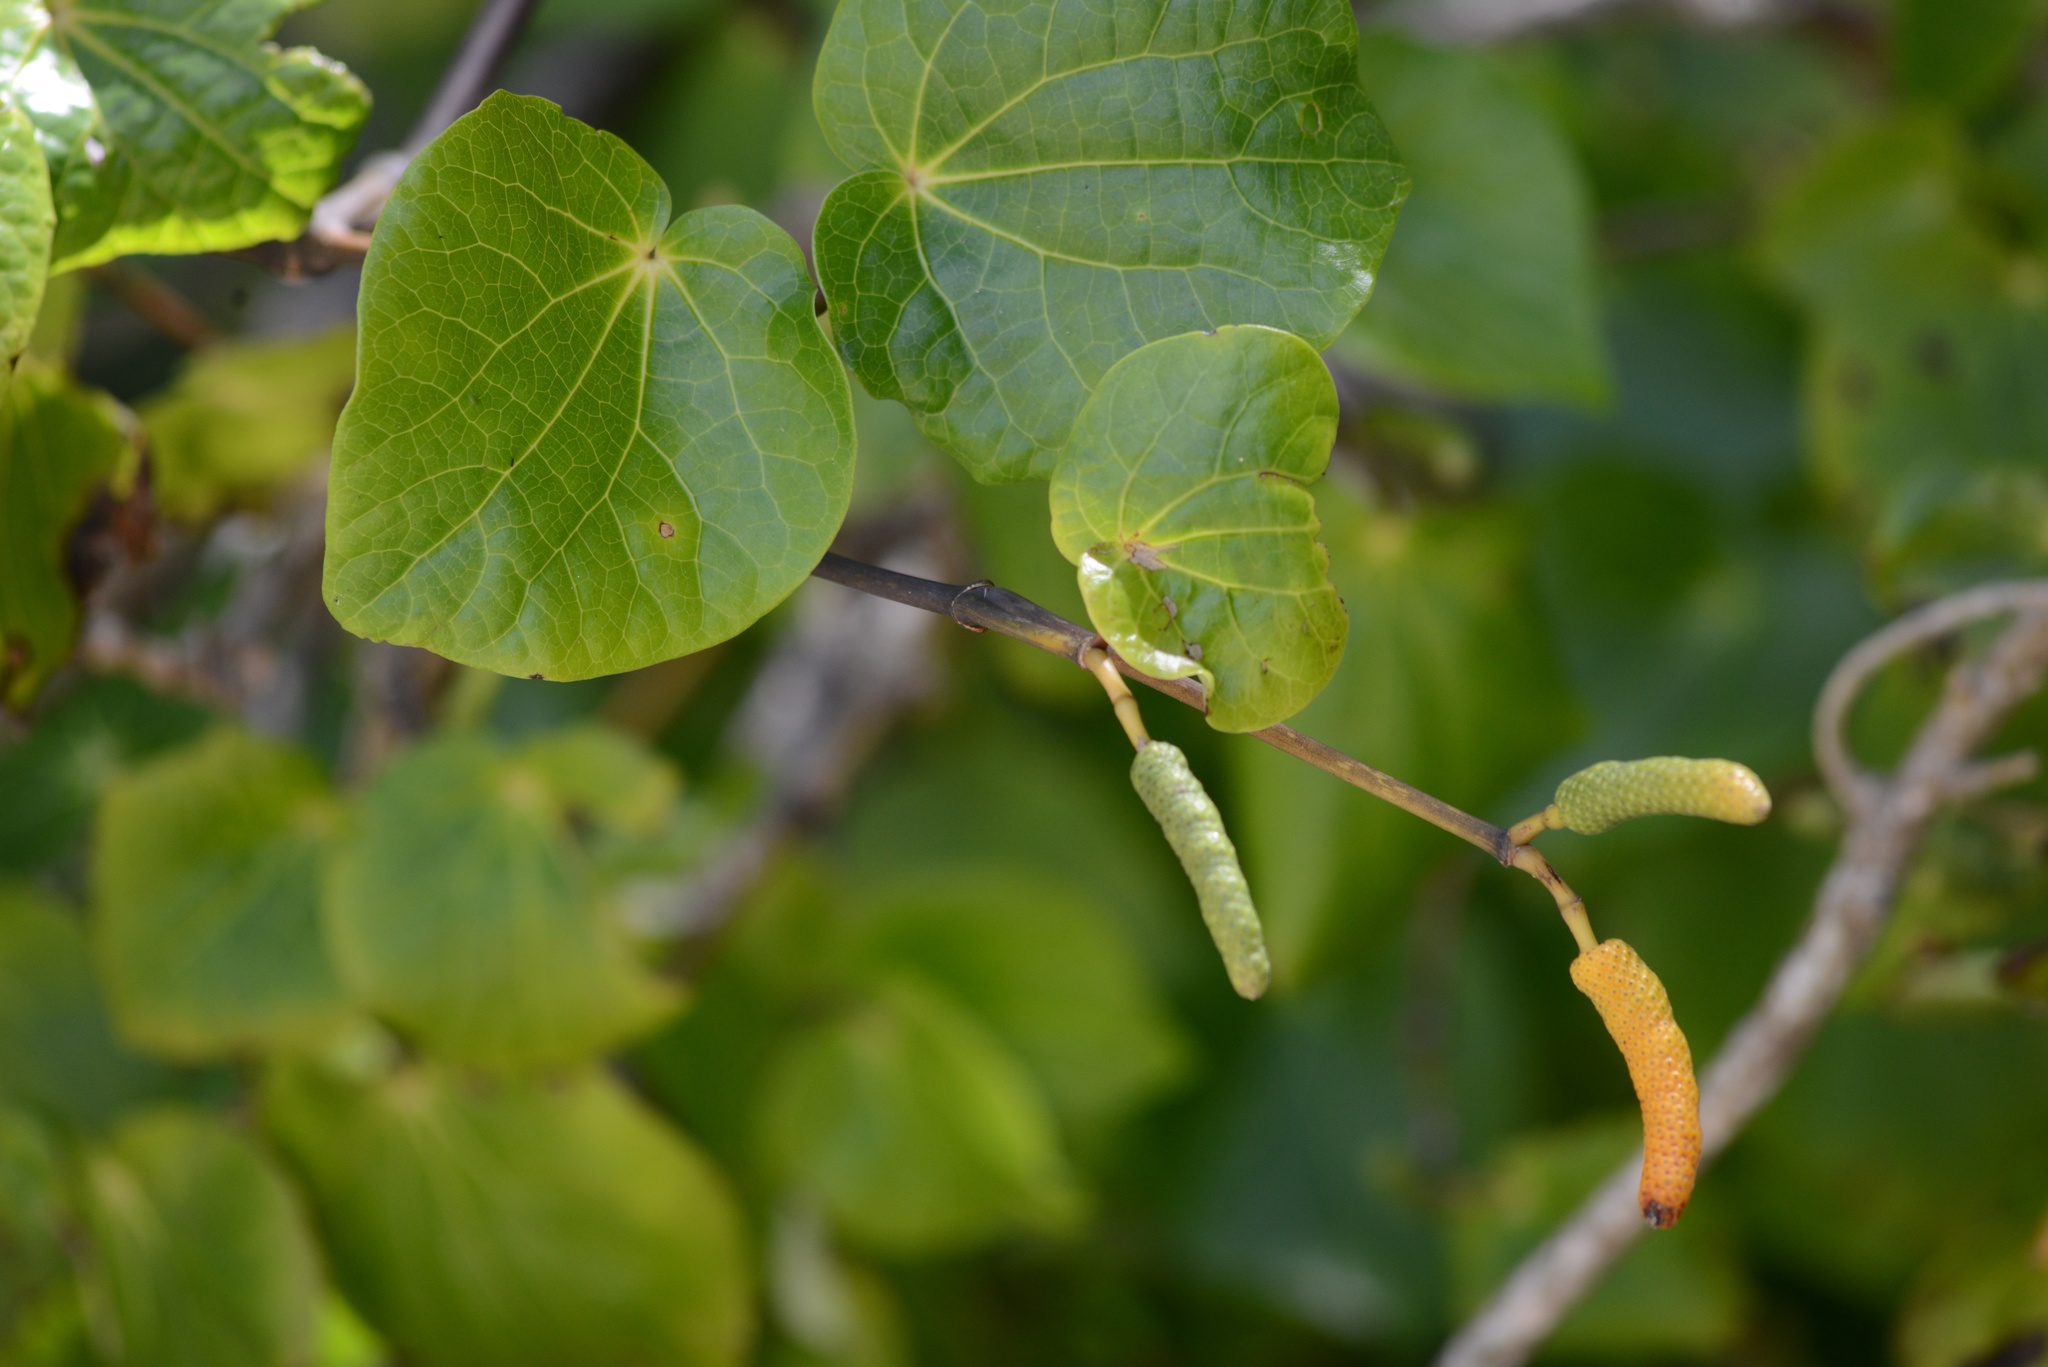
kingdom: Plantae
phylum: Tracheophyta
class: Magnoliopsida
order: Piperales
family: Piperaceae
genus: Macropiper
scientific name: Macropiper excelsum
